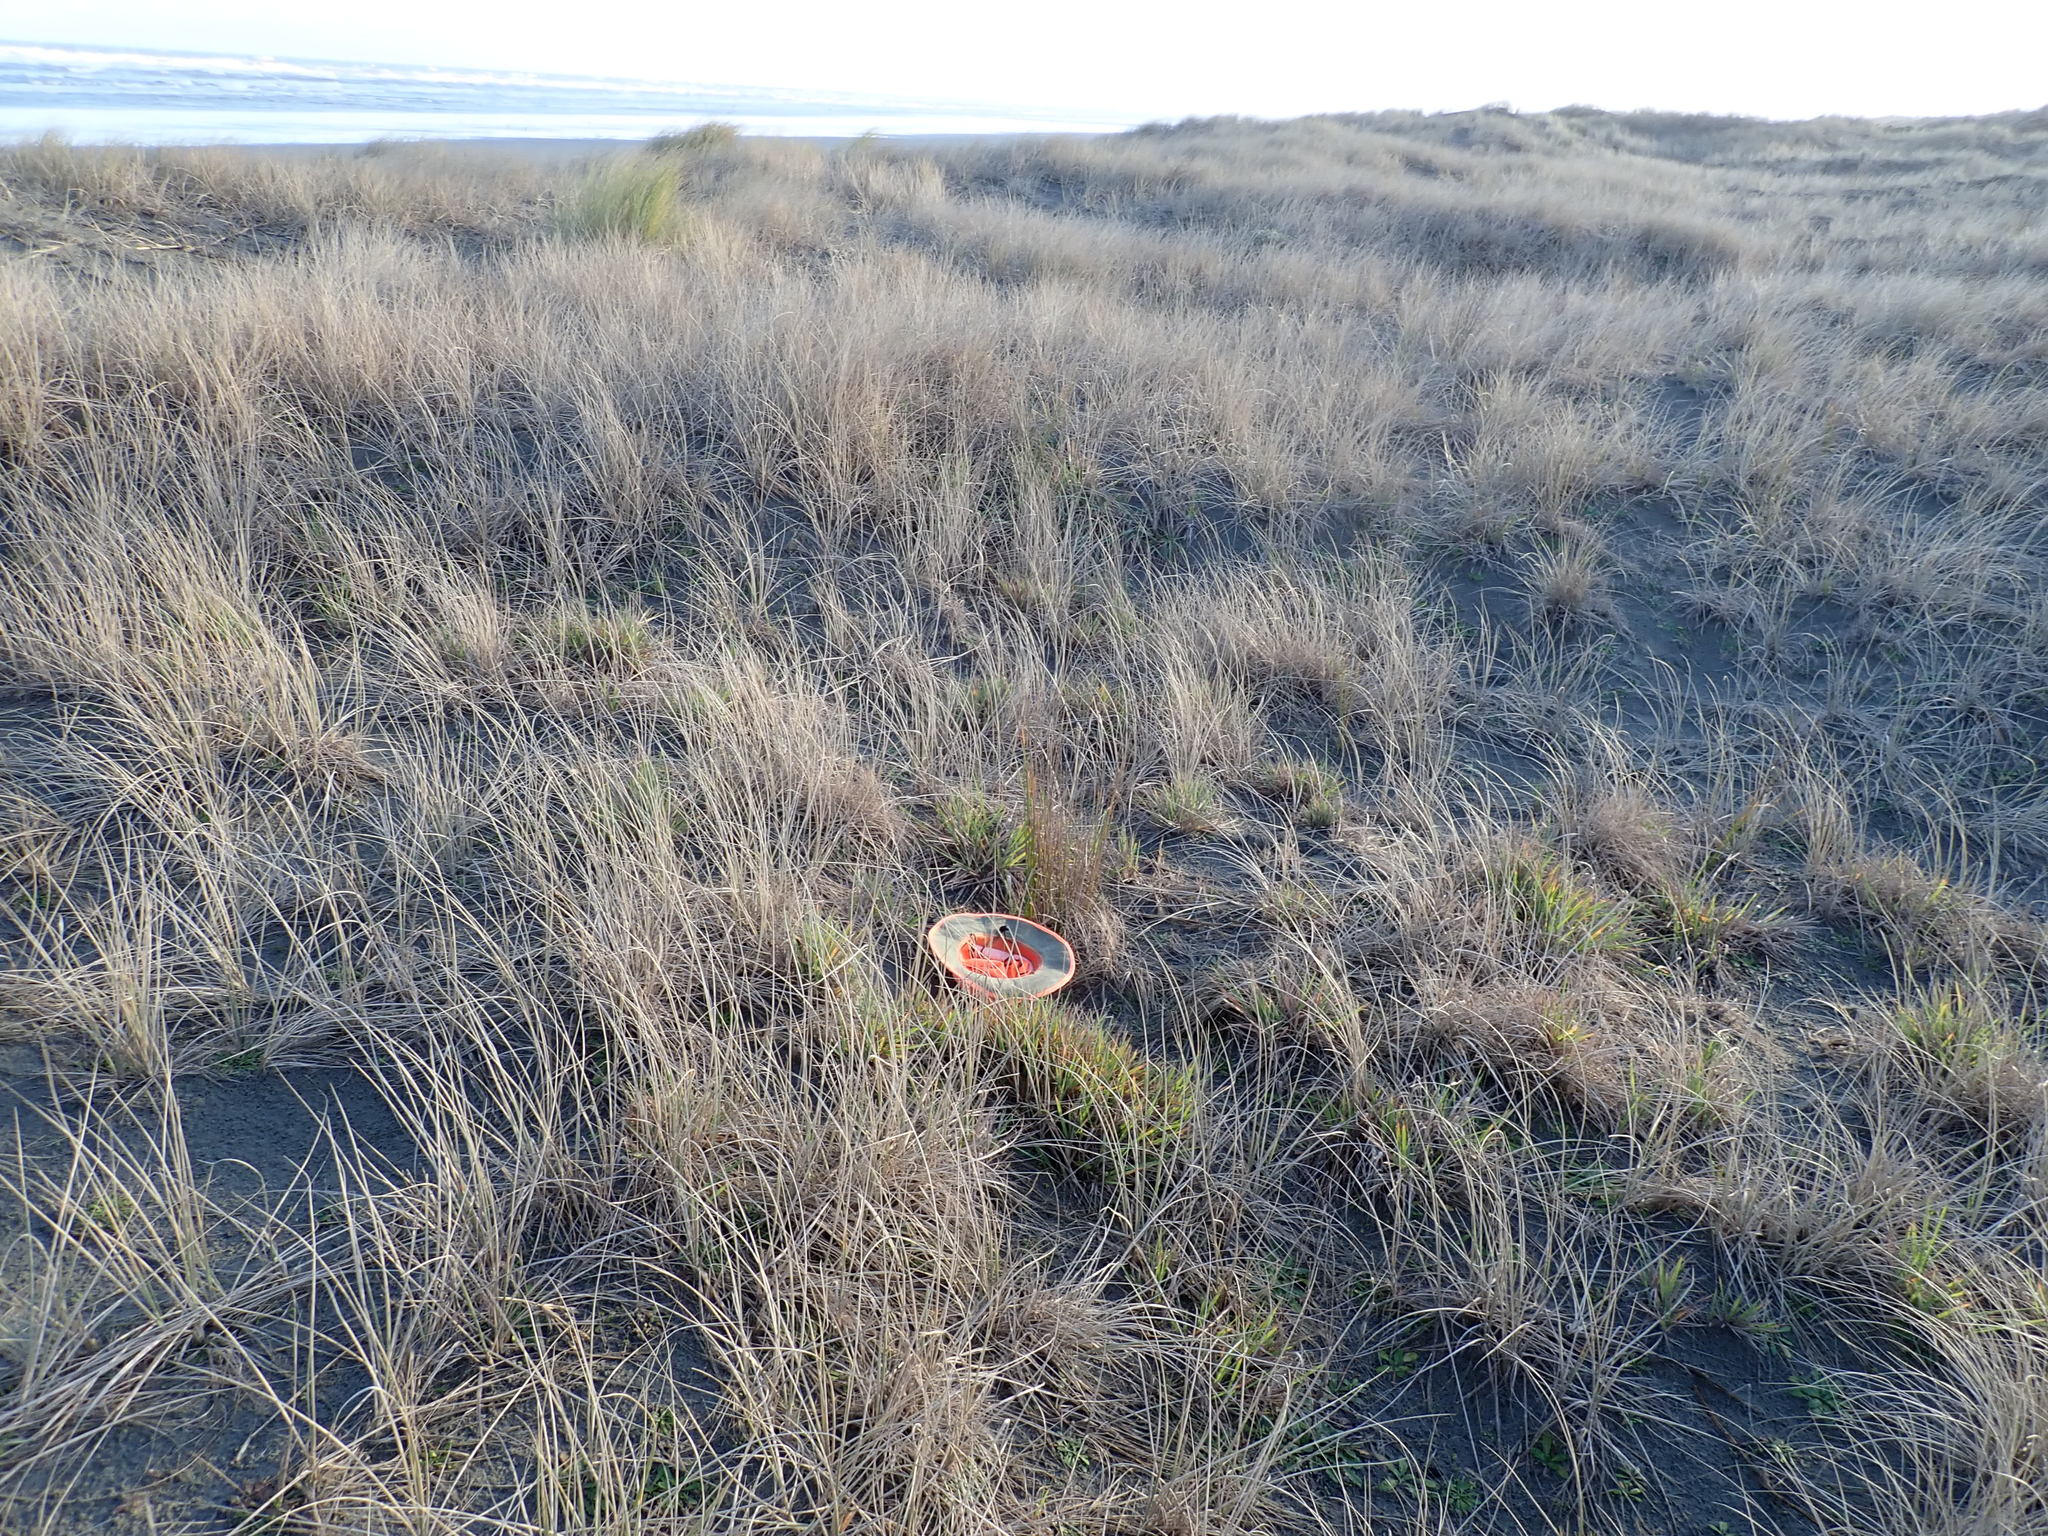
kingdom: Plantae
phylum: Tracheophyta
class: Liliopsida
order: Poales
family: Poaceae
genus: Lachnagrostis
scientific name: Lachnagrostis billardierei
